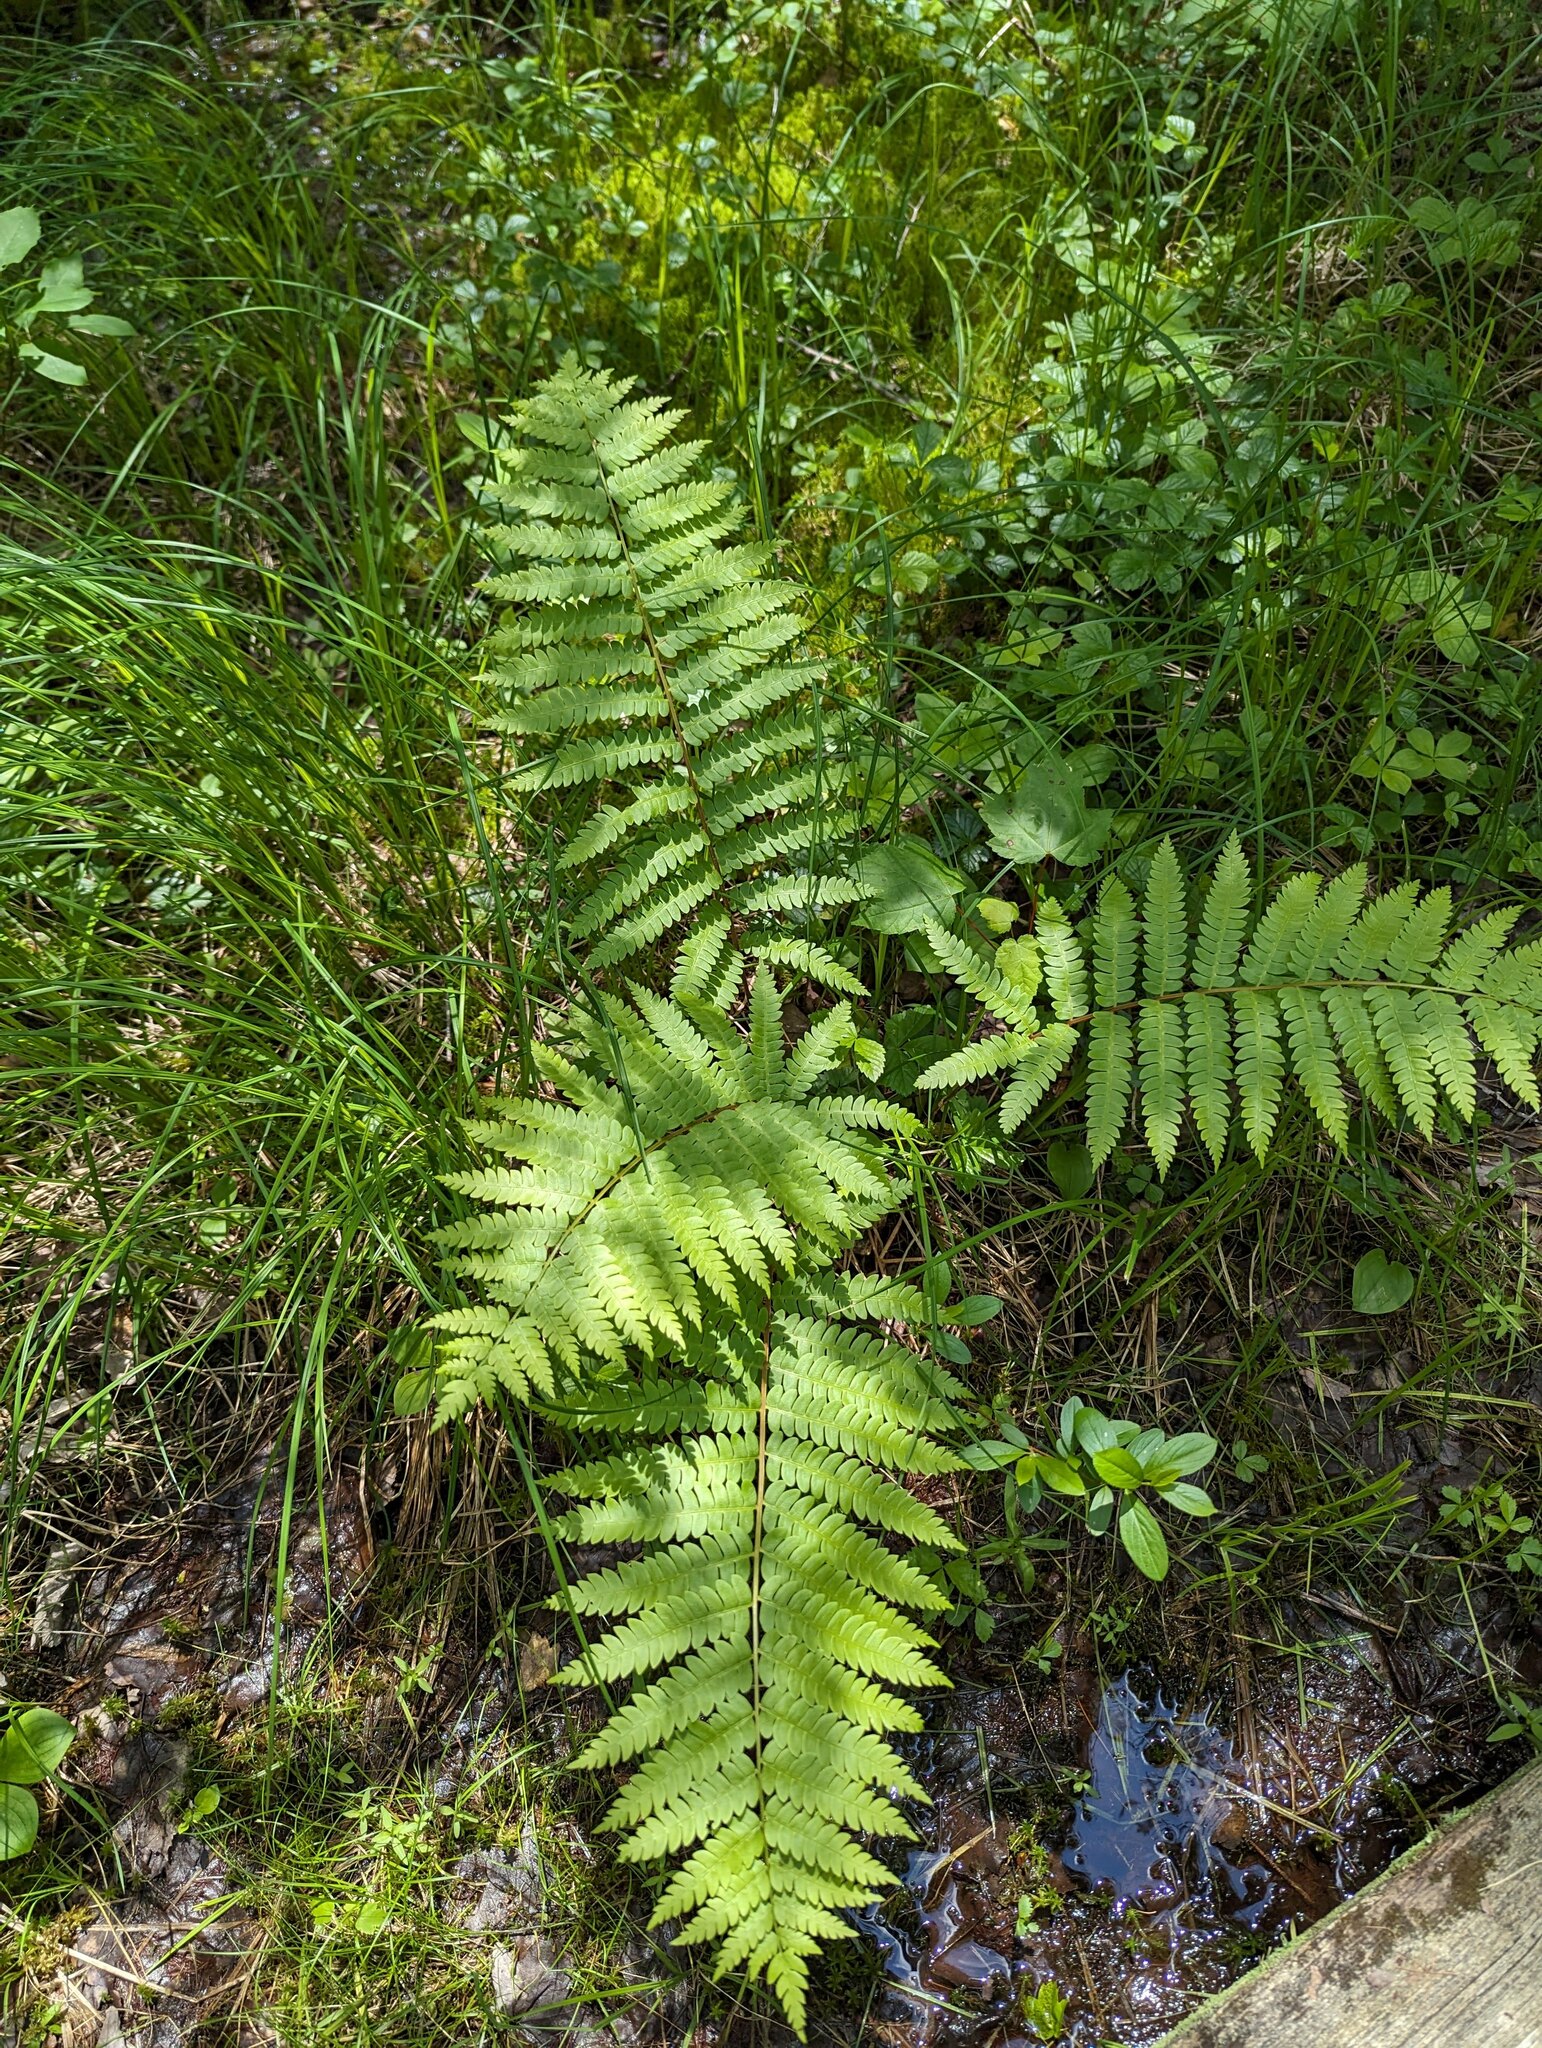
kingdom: Plantae
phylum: Tracheophyta
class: Polypodiopsida
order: Osmundales
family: Osmundaceae
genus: Osmundastrum
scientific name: Osmundastrum cinnamomeum
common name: Cinnamon fern
